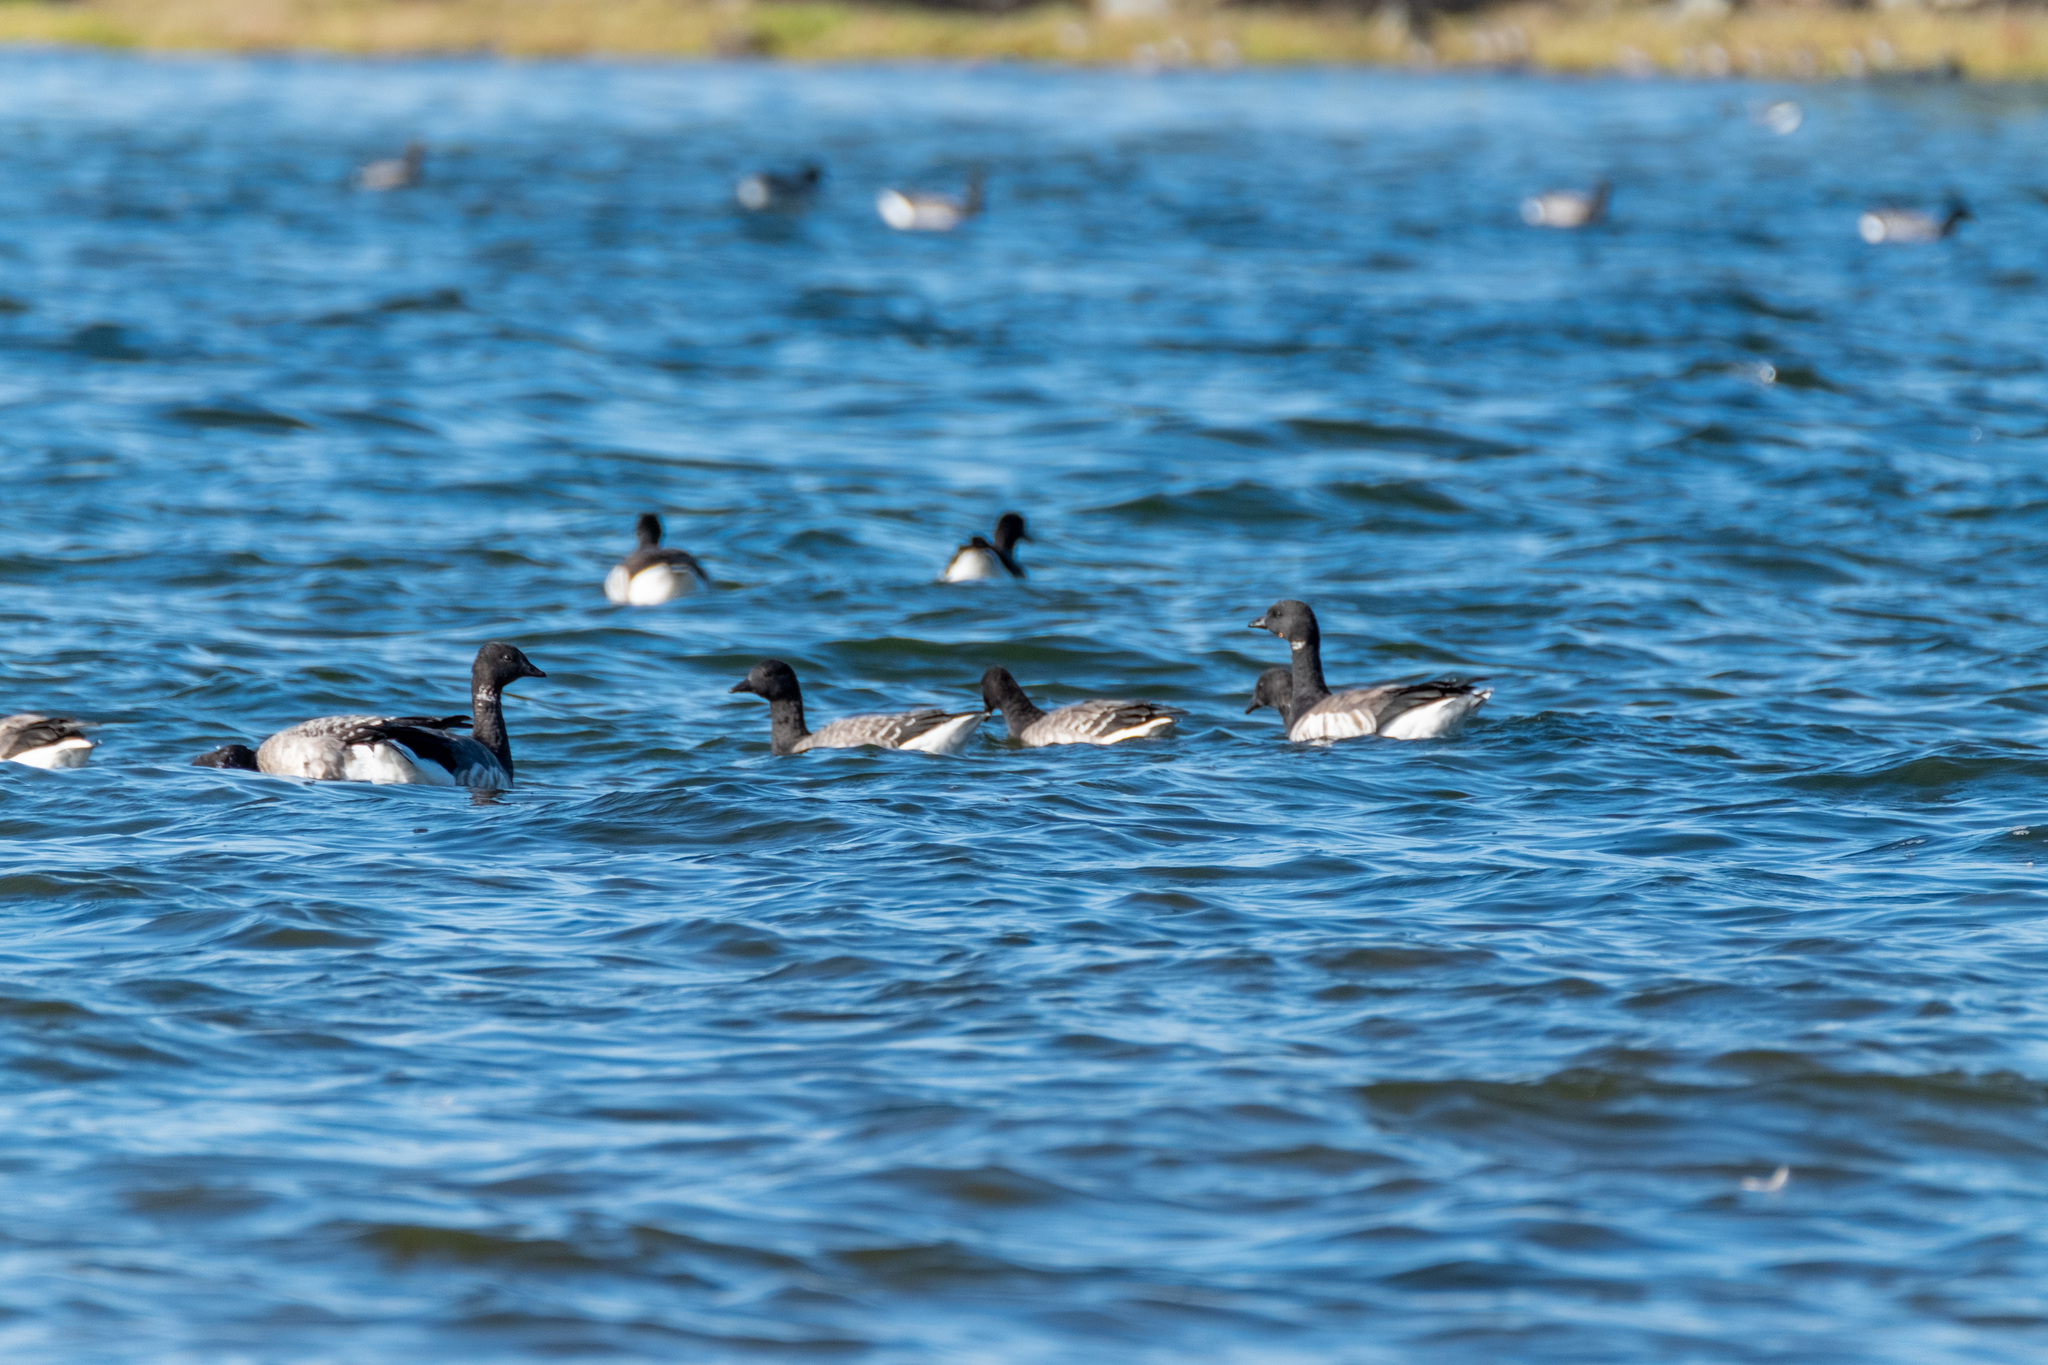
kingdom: Animalia
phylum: Chordata
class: Aves
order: Anseriformes
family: Anatidae
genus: Branta
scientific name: Branta bernicla
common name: Brant goose
